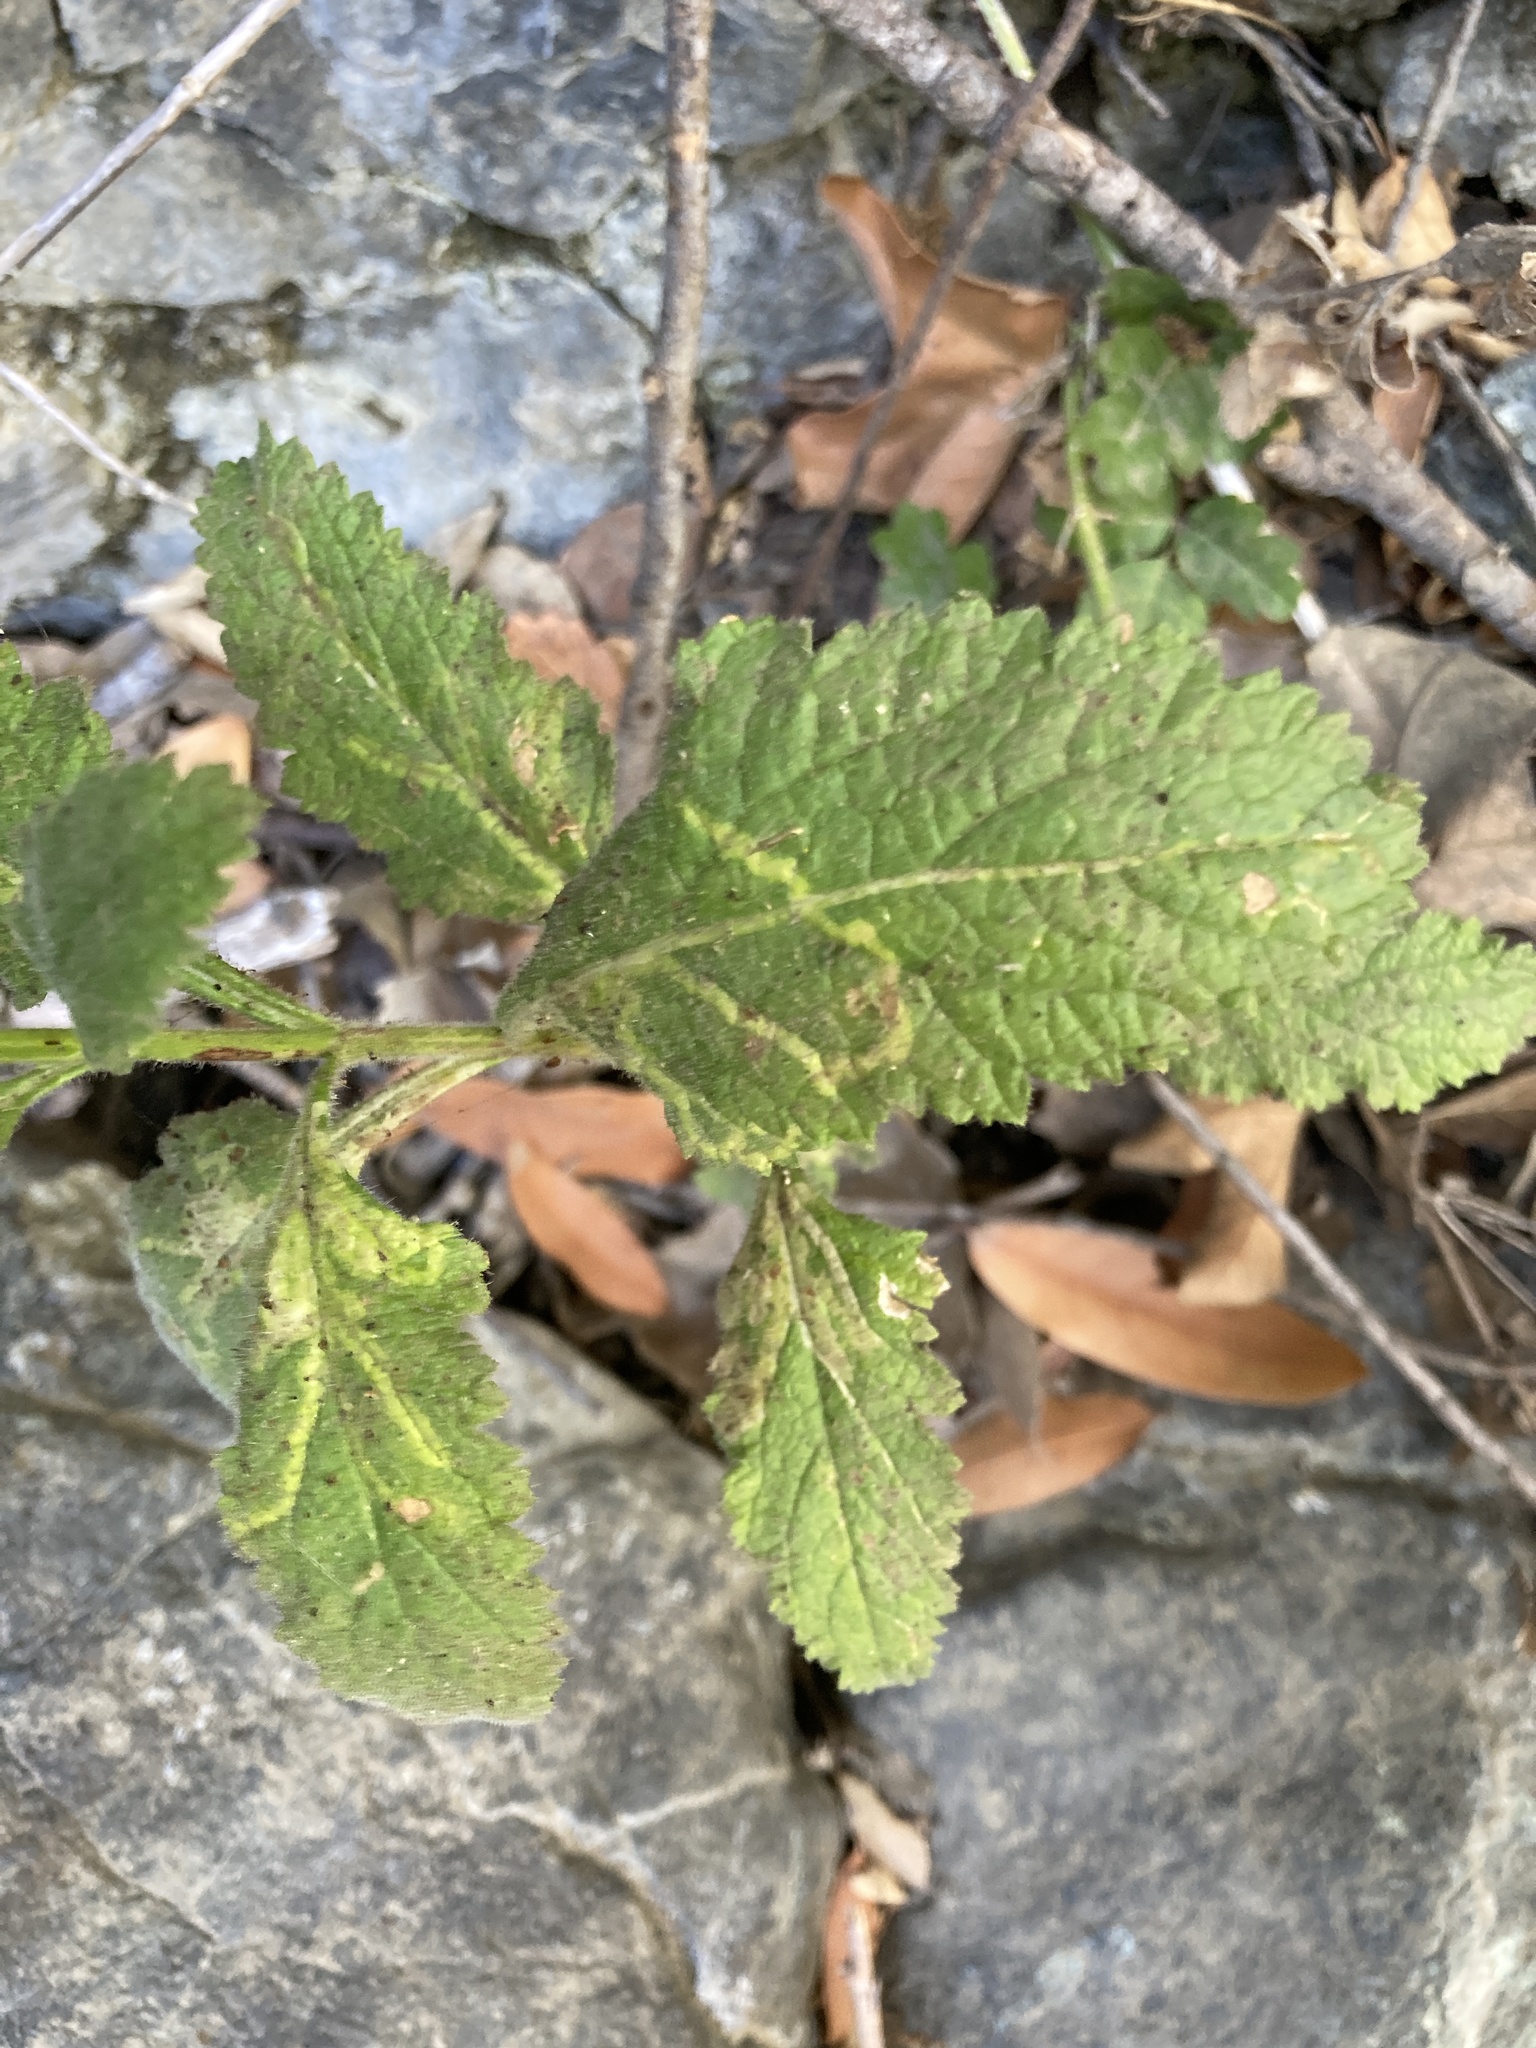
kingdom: Animalia
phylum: Arthropoda
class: Insecta
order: Diptera
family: Agromyzidae
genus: Phytomyza
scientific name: Phytomyza verbenae
